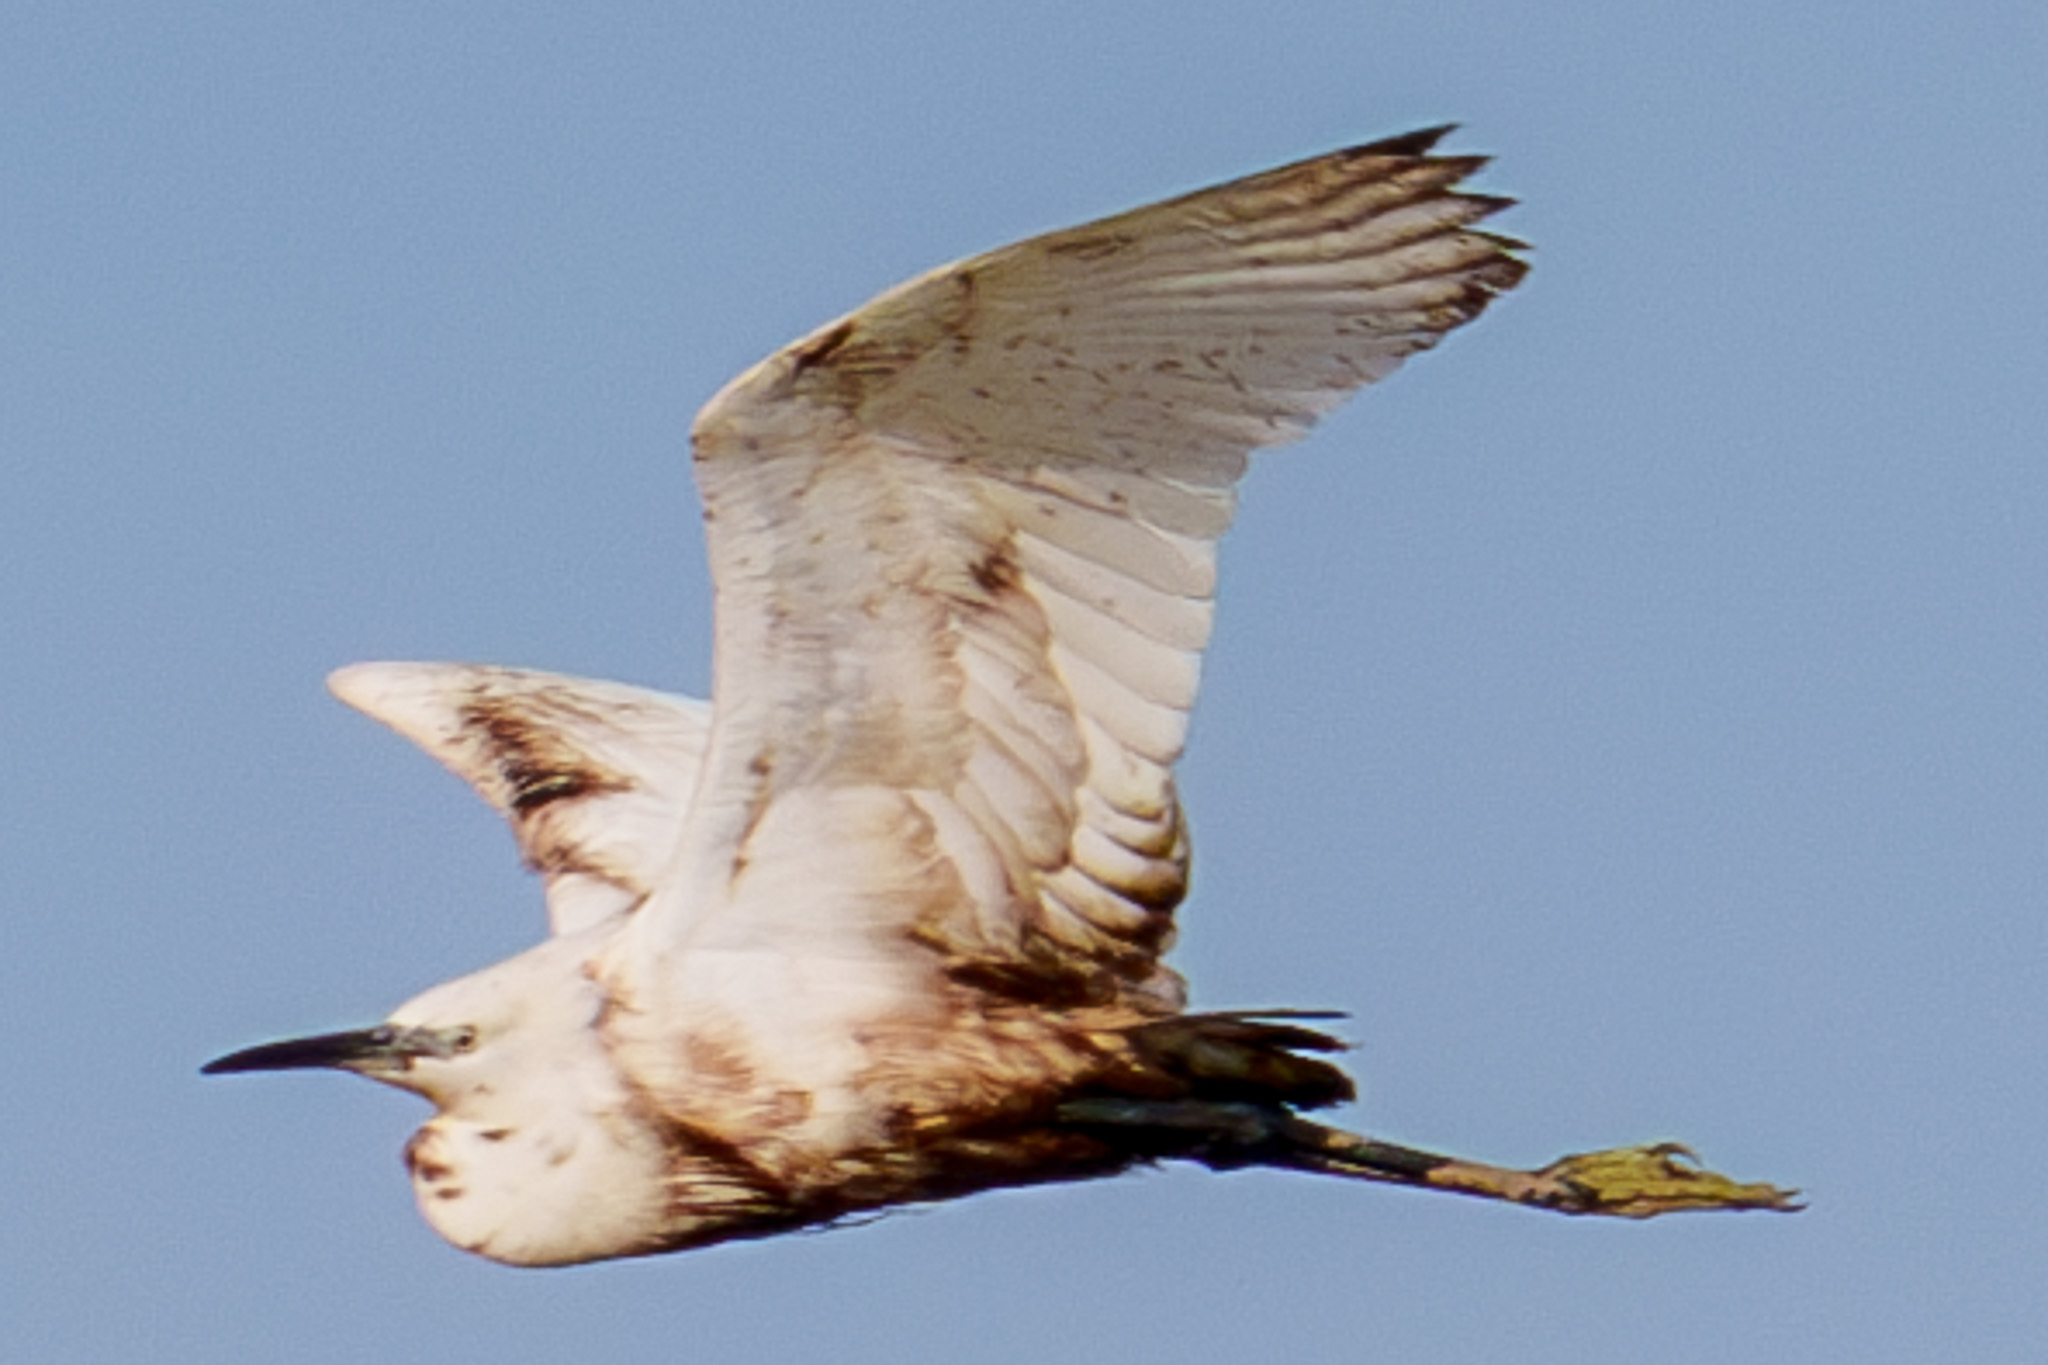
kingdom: Animalia
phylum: Chordata
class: Aves
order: Pelecaniformes
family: Ardeidae
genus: Egretta
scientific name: Egretta garzetta
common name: Little egret
